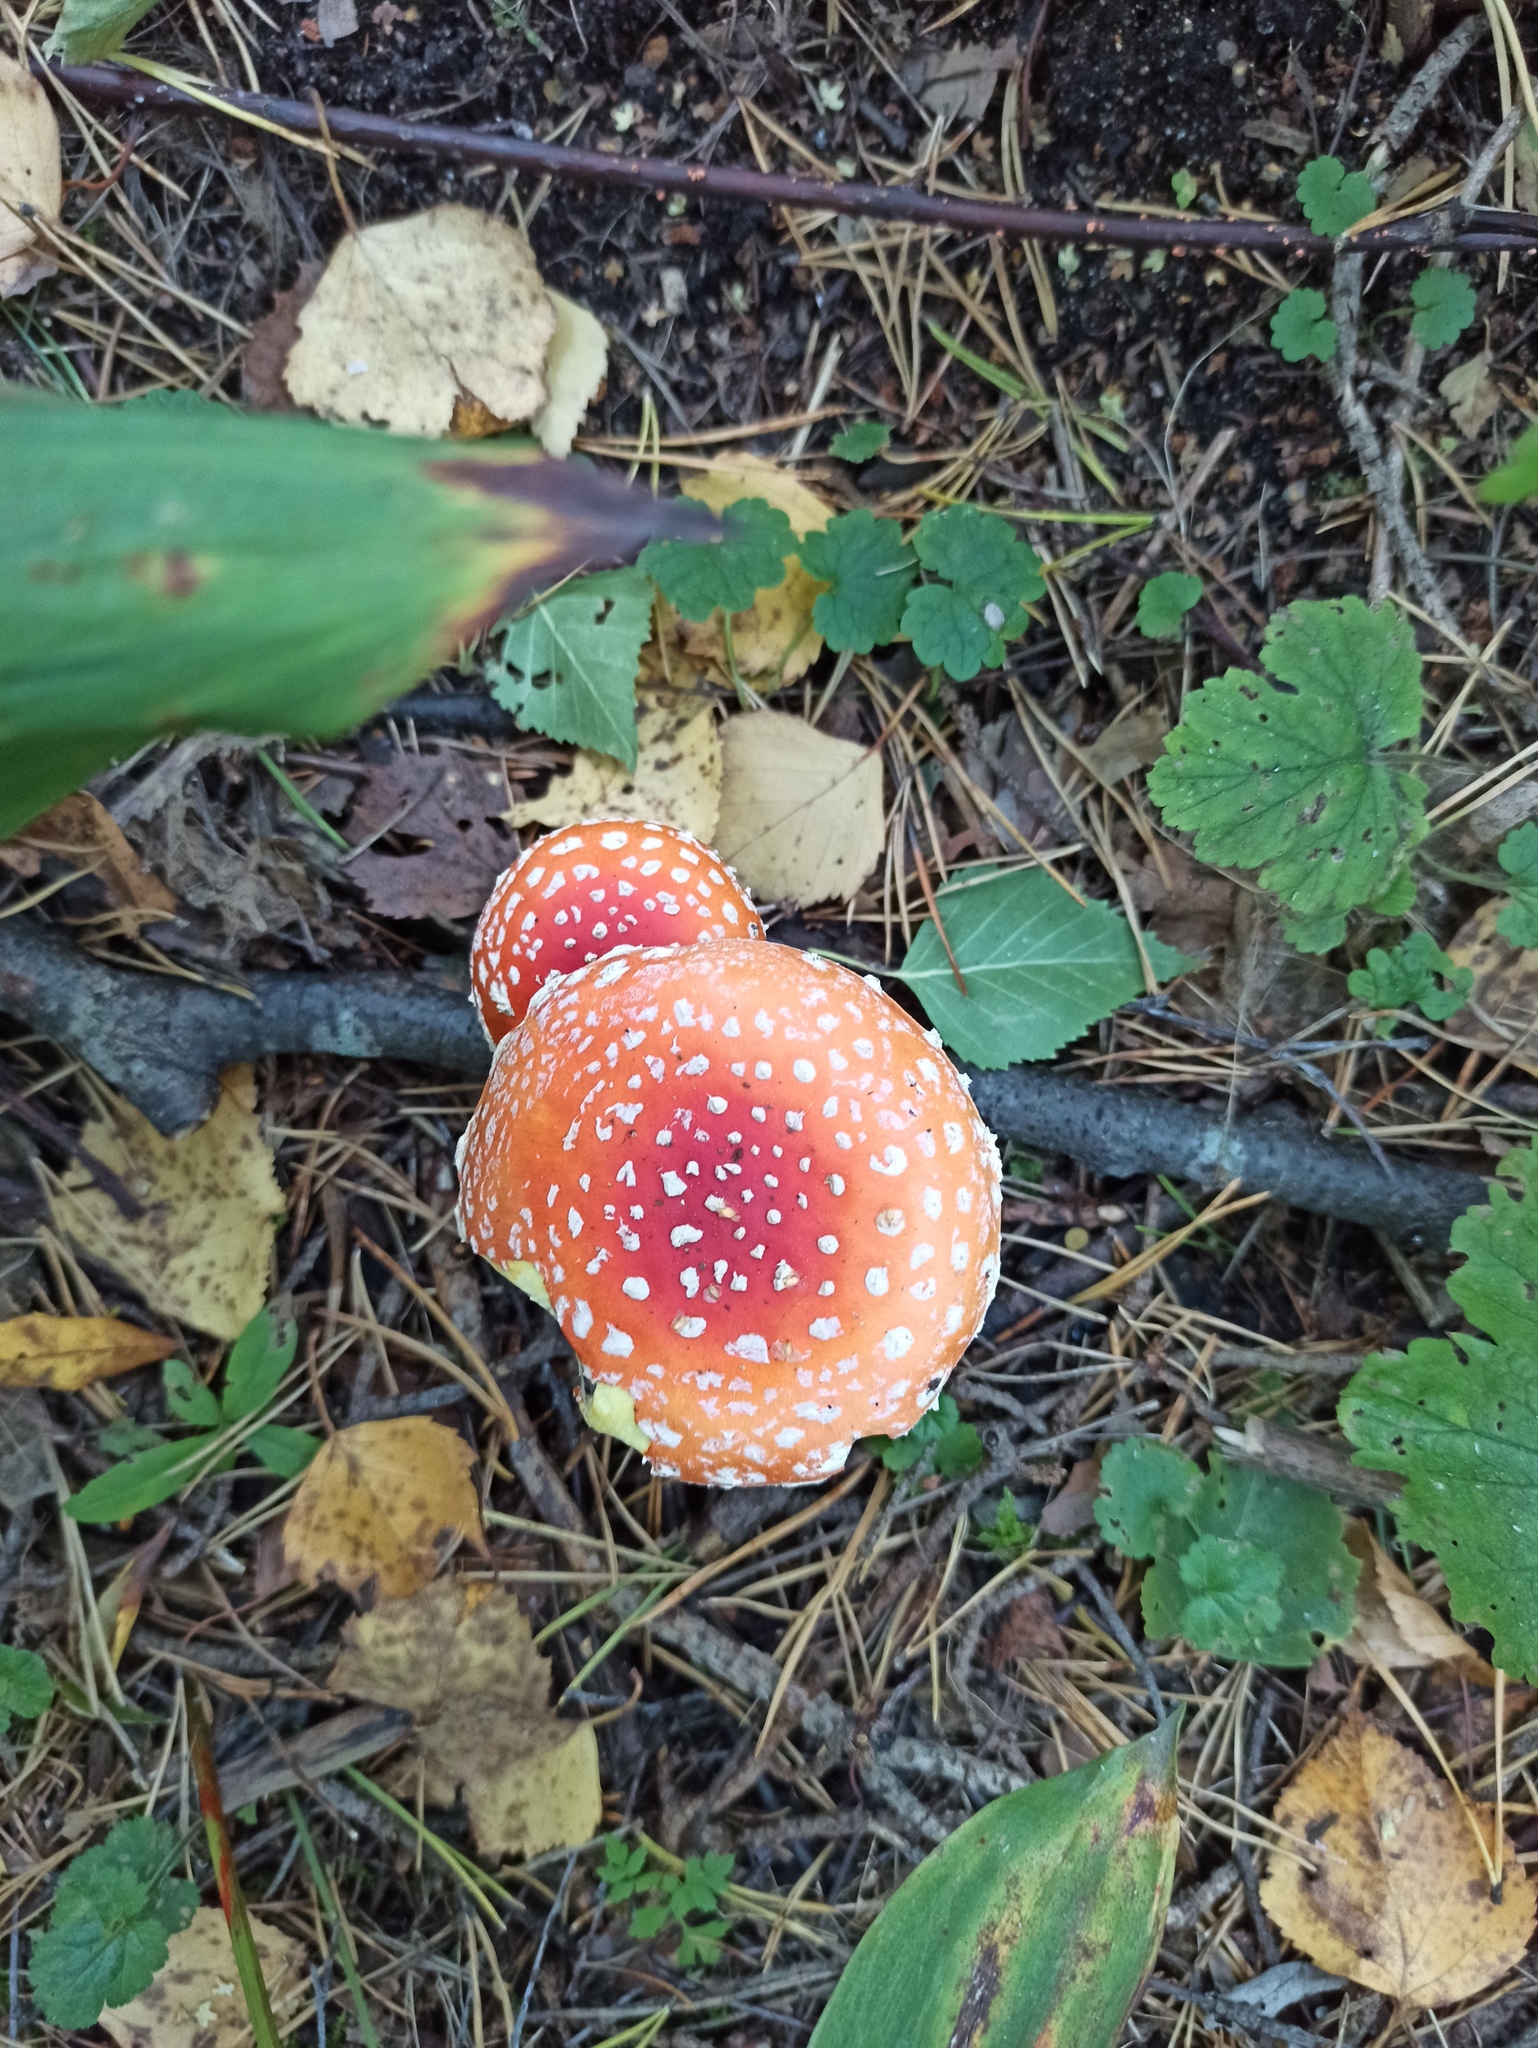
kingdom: Fungi
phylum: Basidiomycota
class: Agaricomycetes
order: Agaricales
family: Amanitaceae
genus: Amanita
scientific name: Amanita muscaria
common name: Fly agaric
